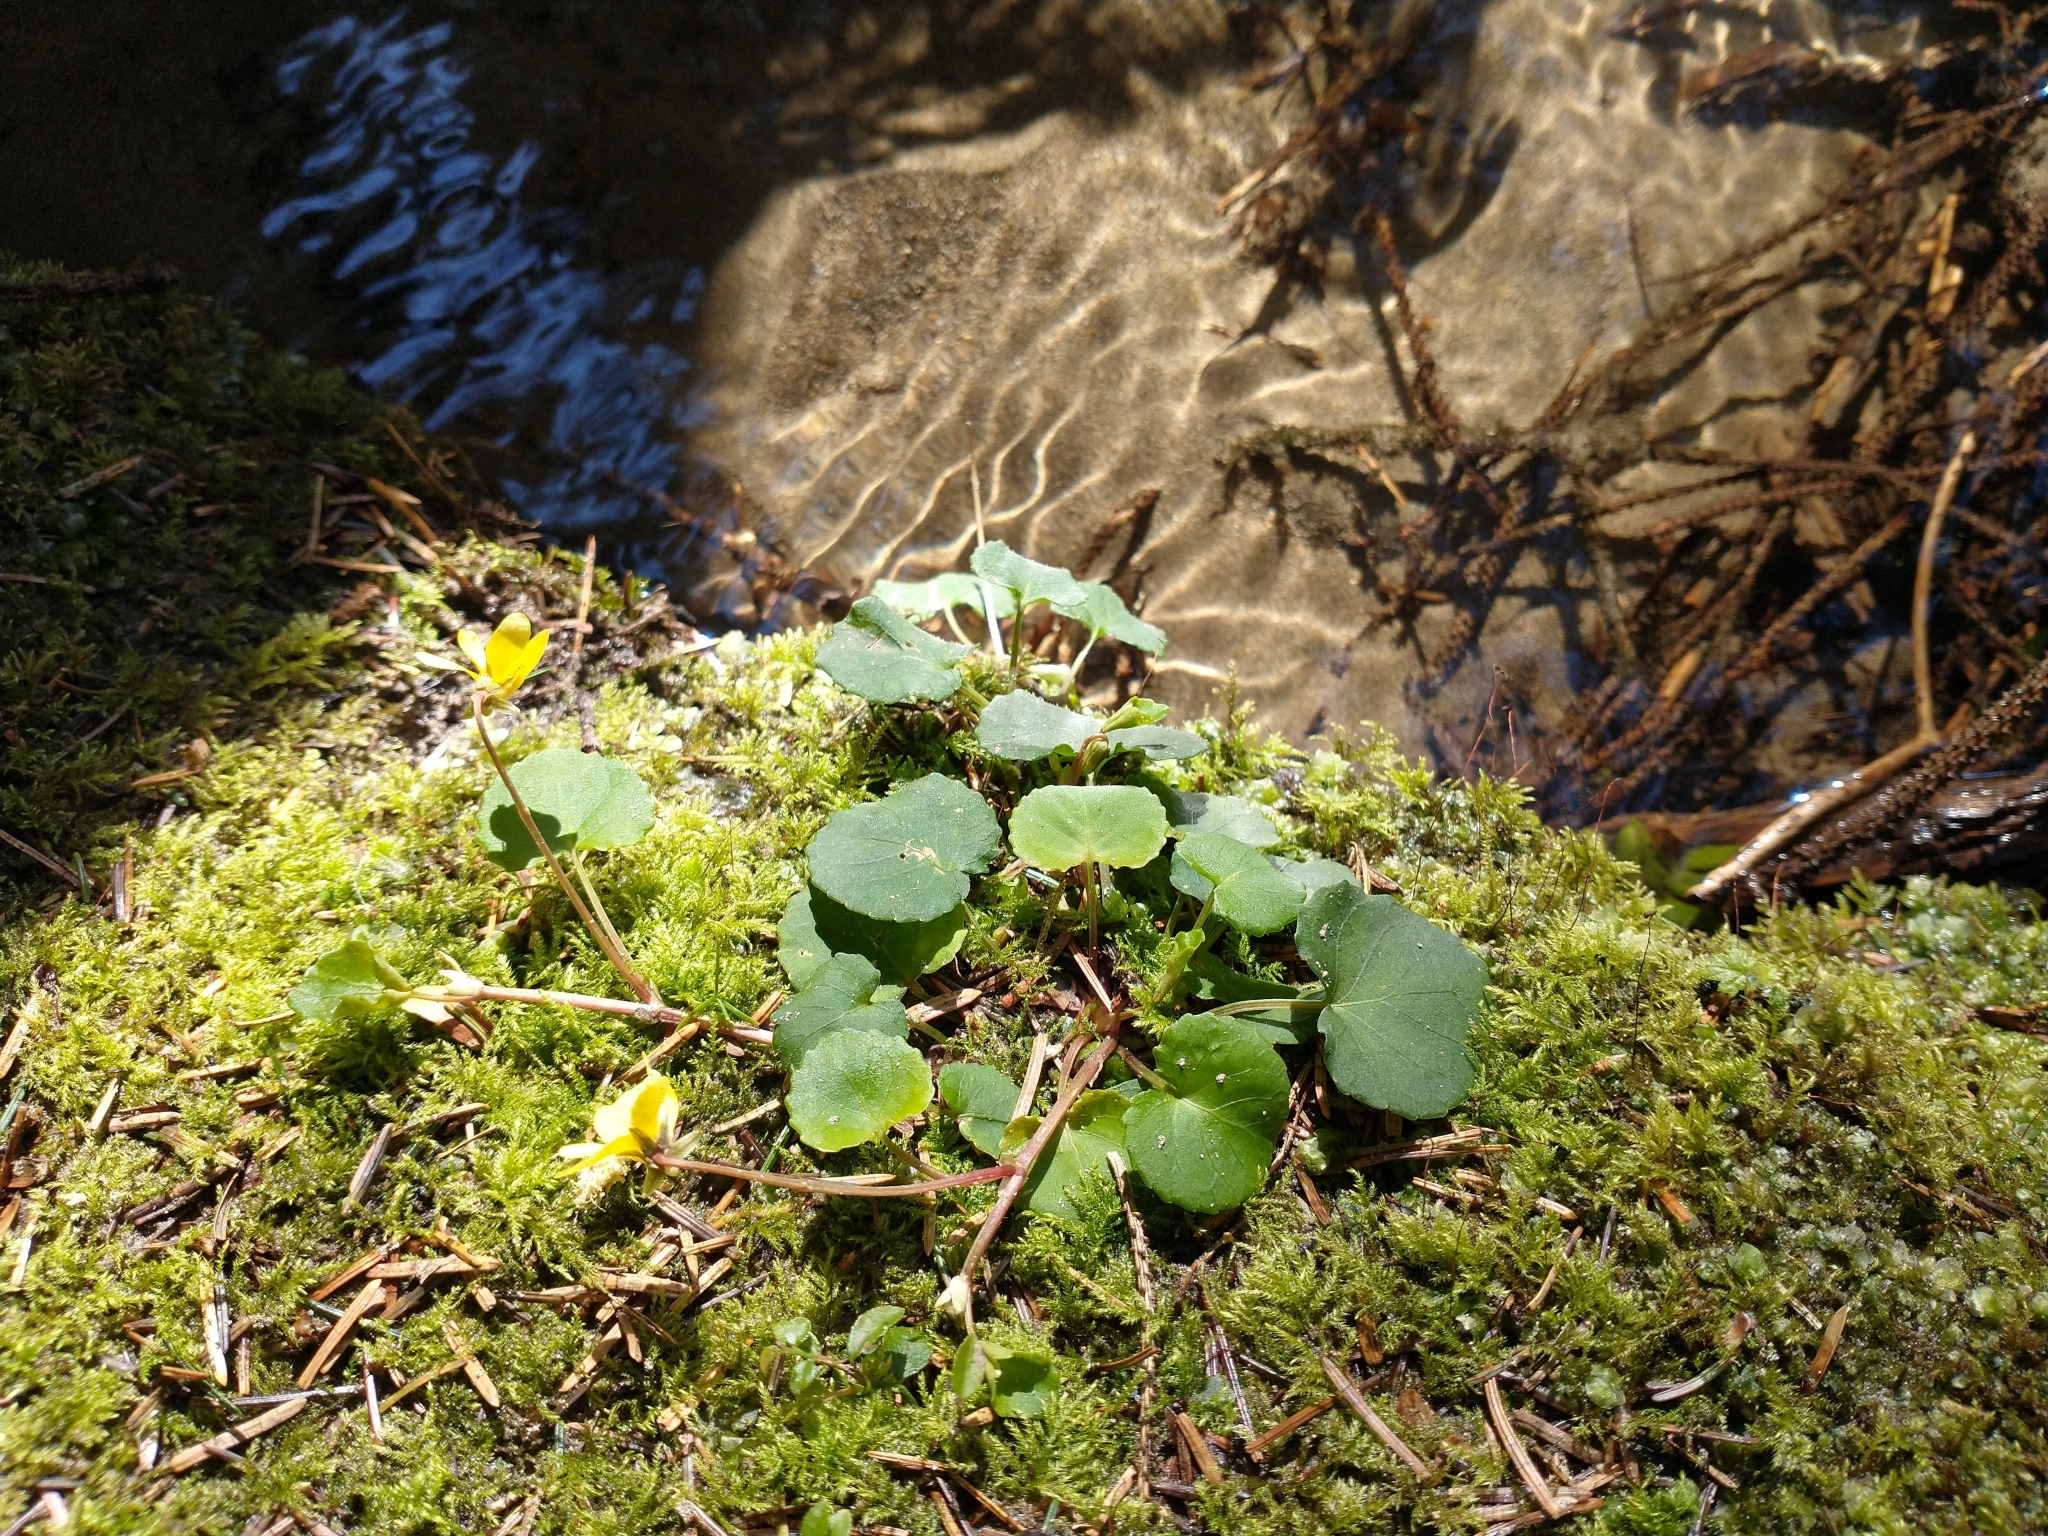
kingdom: Plantae
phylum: Tracheophyta
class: Magnoliopsida
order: Malpighiales
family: Violaceae
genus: Viola
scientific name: Viola sempervirens
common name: Evergreen violet
